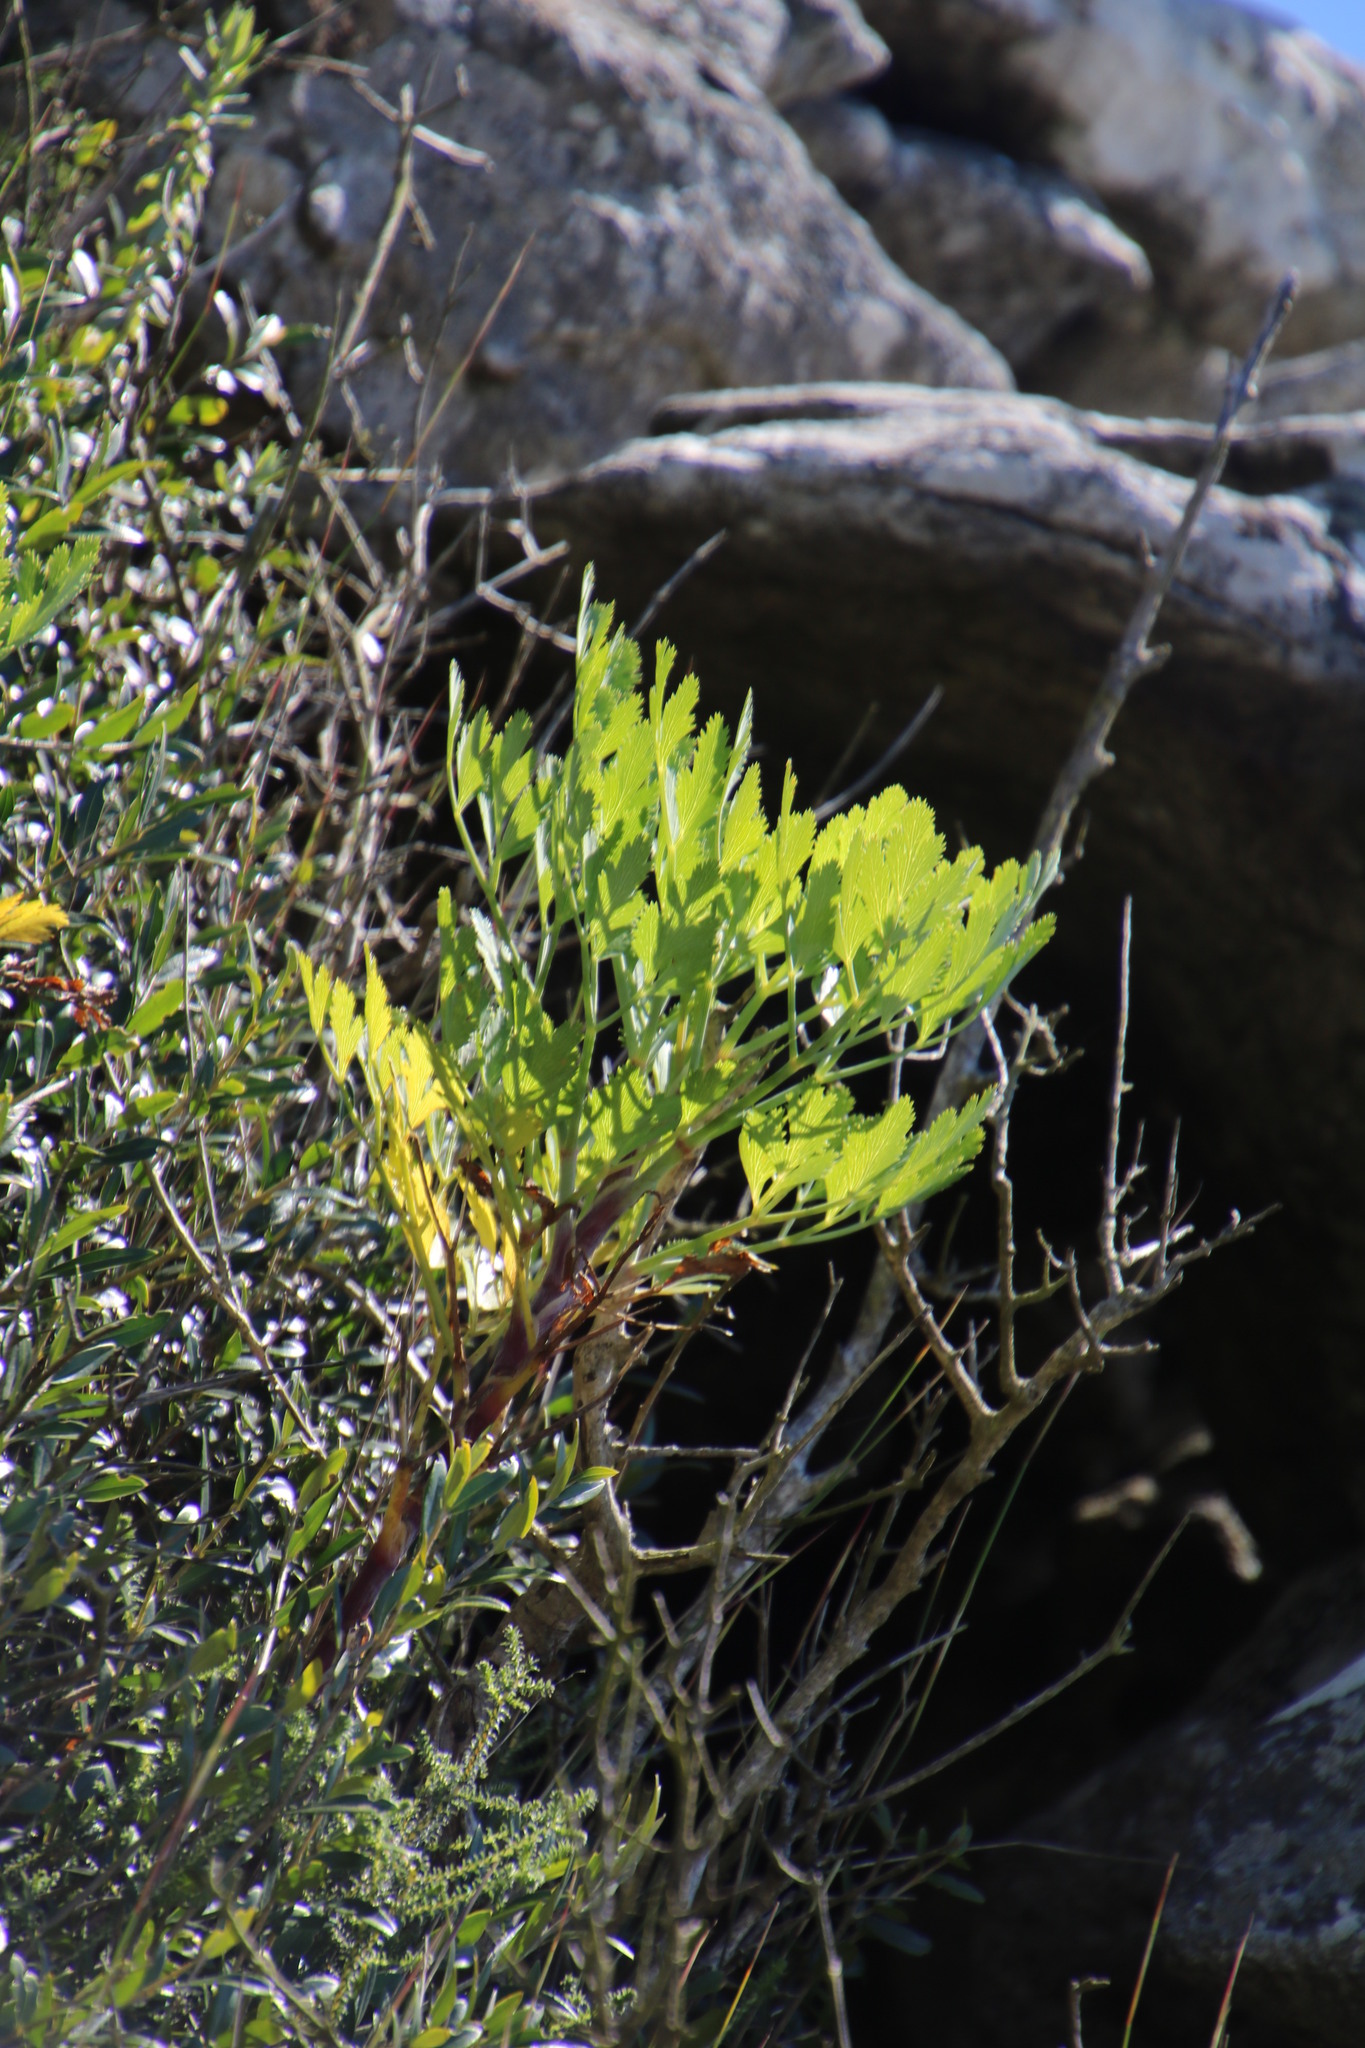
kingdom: Plantae
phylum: Tracheophyta
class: Magnoliopsida
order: Apiales
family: Apiaceae
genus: Notobubon
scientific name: Notobubon galbanum
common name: Blisterbush
